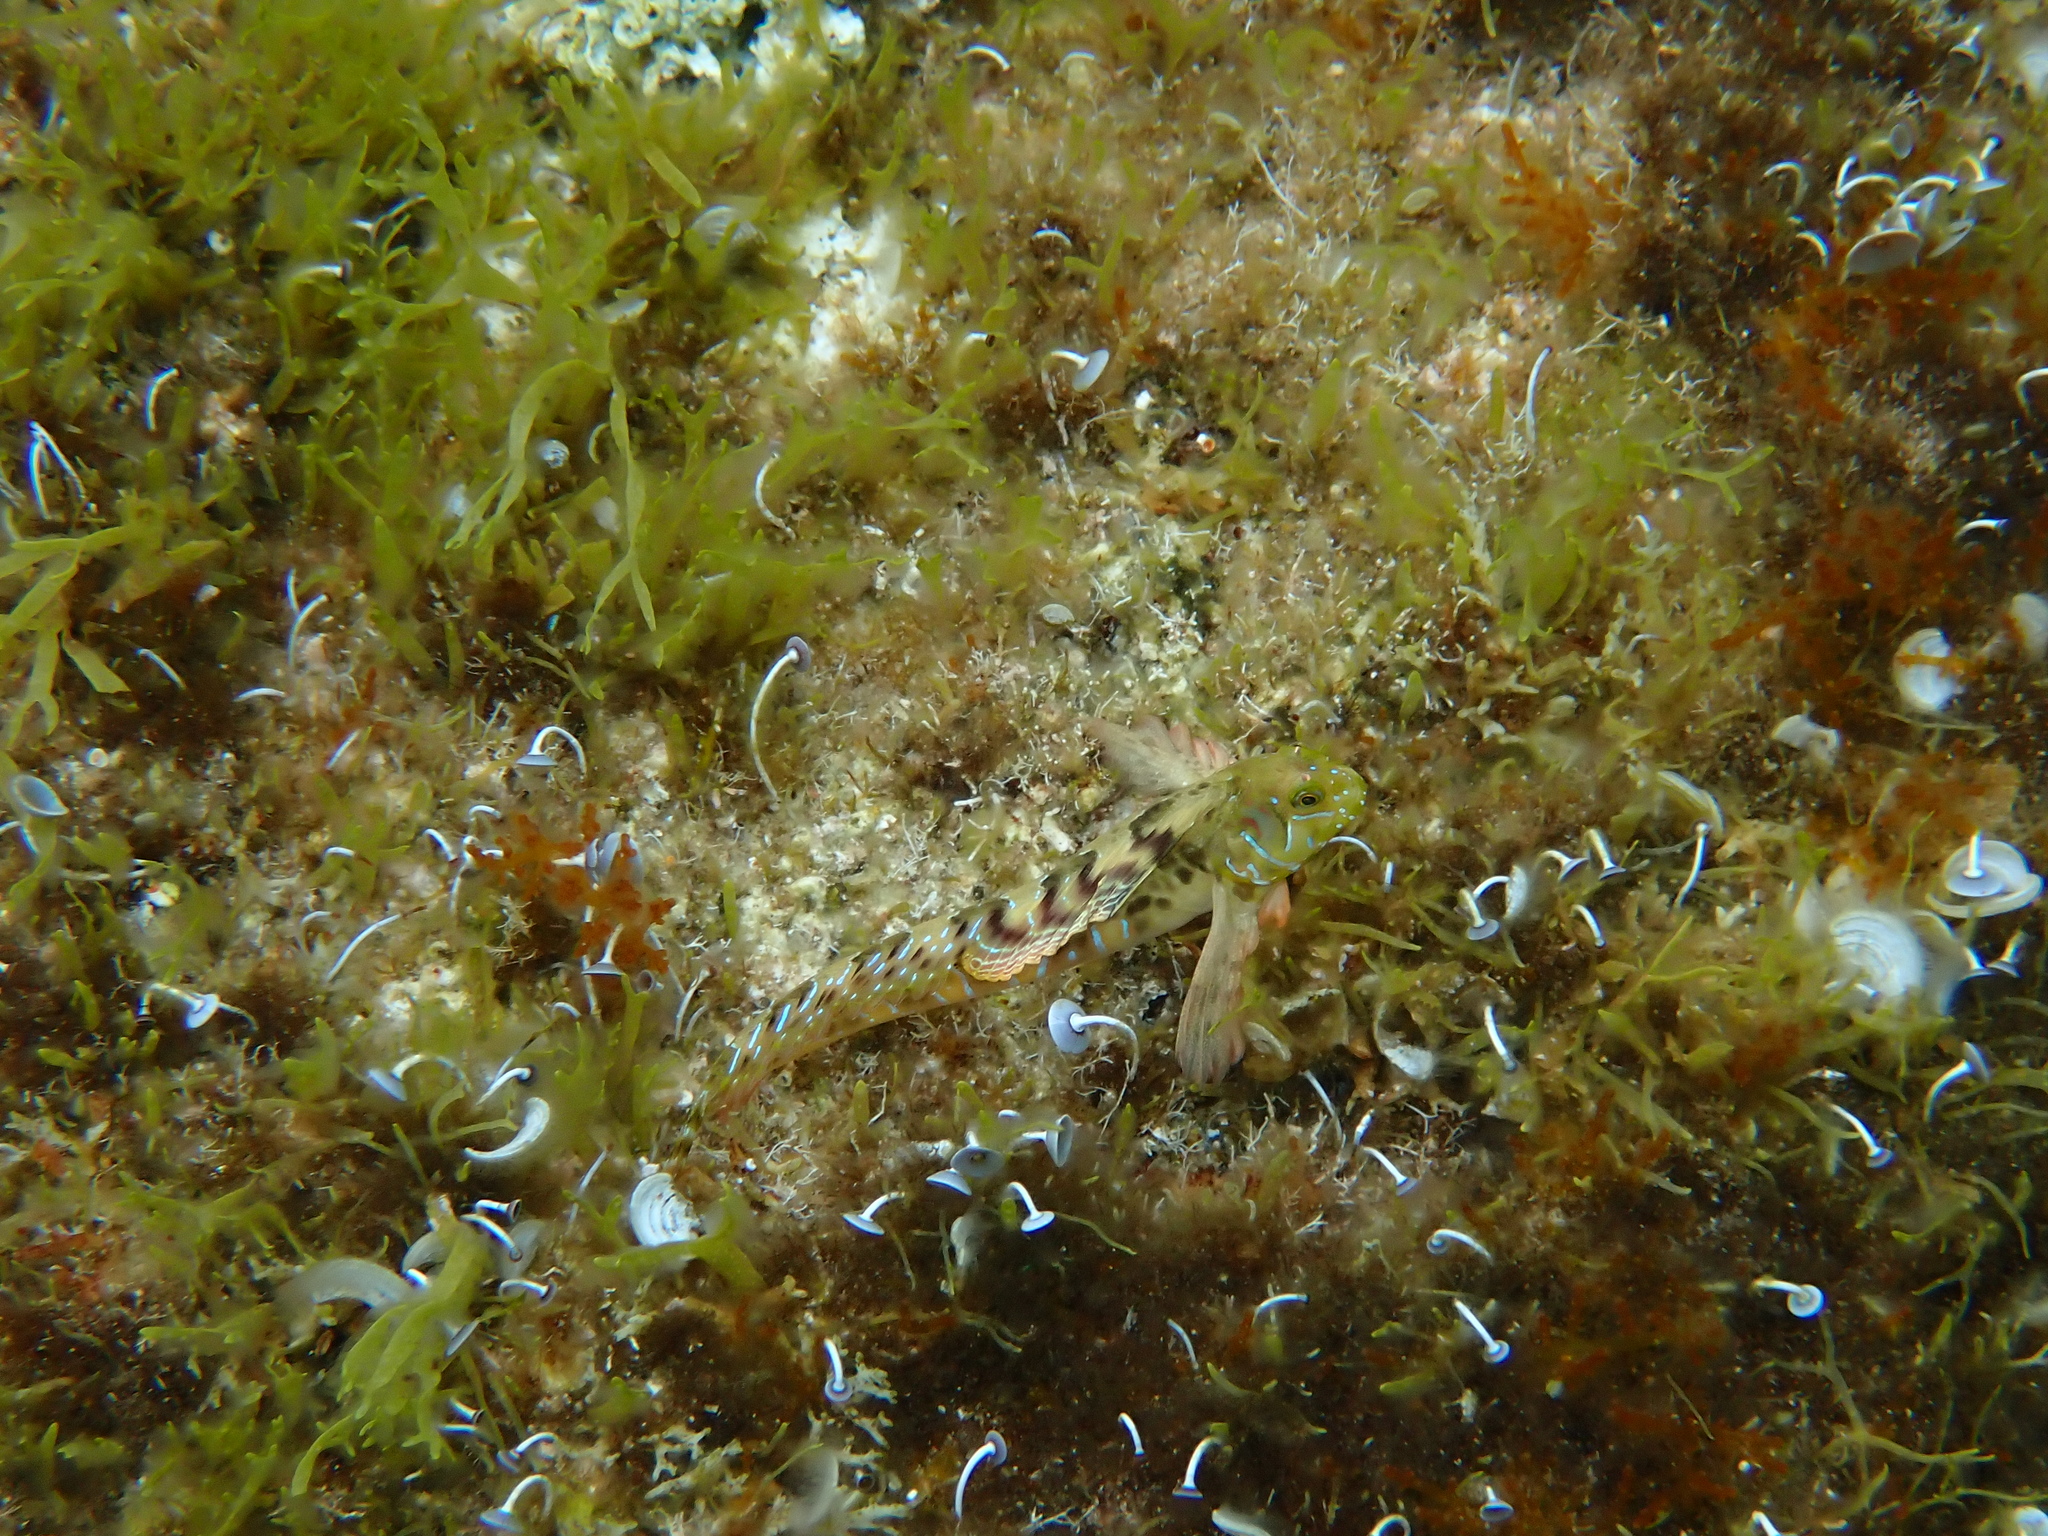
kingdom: Animalia
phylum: Chordata
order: Perciformes
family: Blenniidae
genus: Aidablennius
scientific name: Aidablennius sphynx
